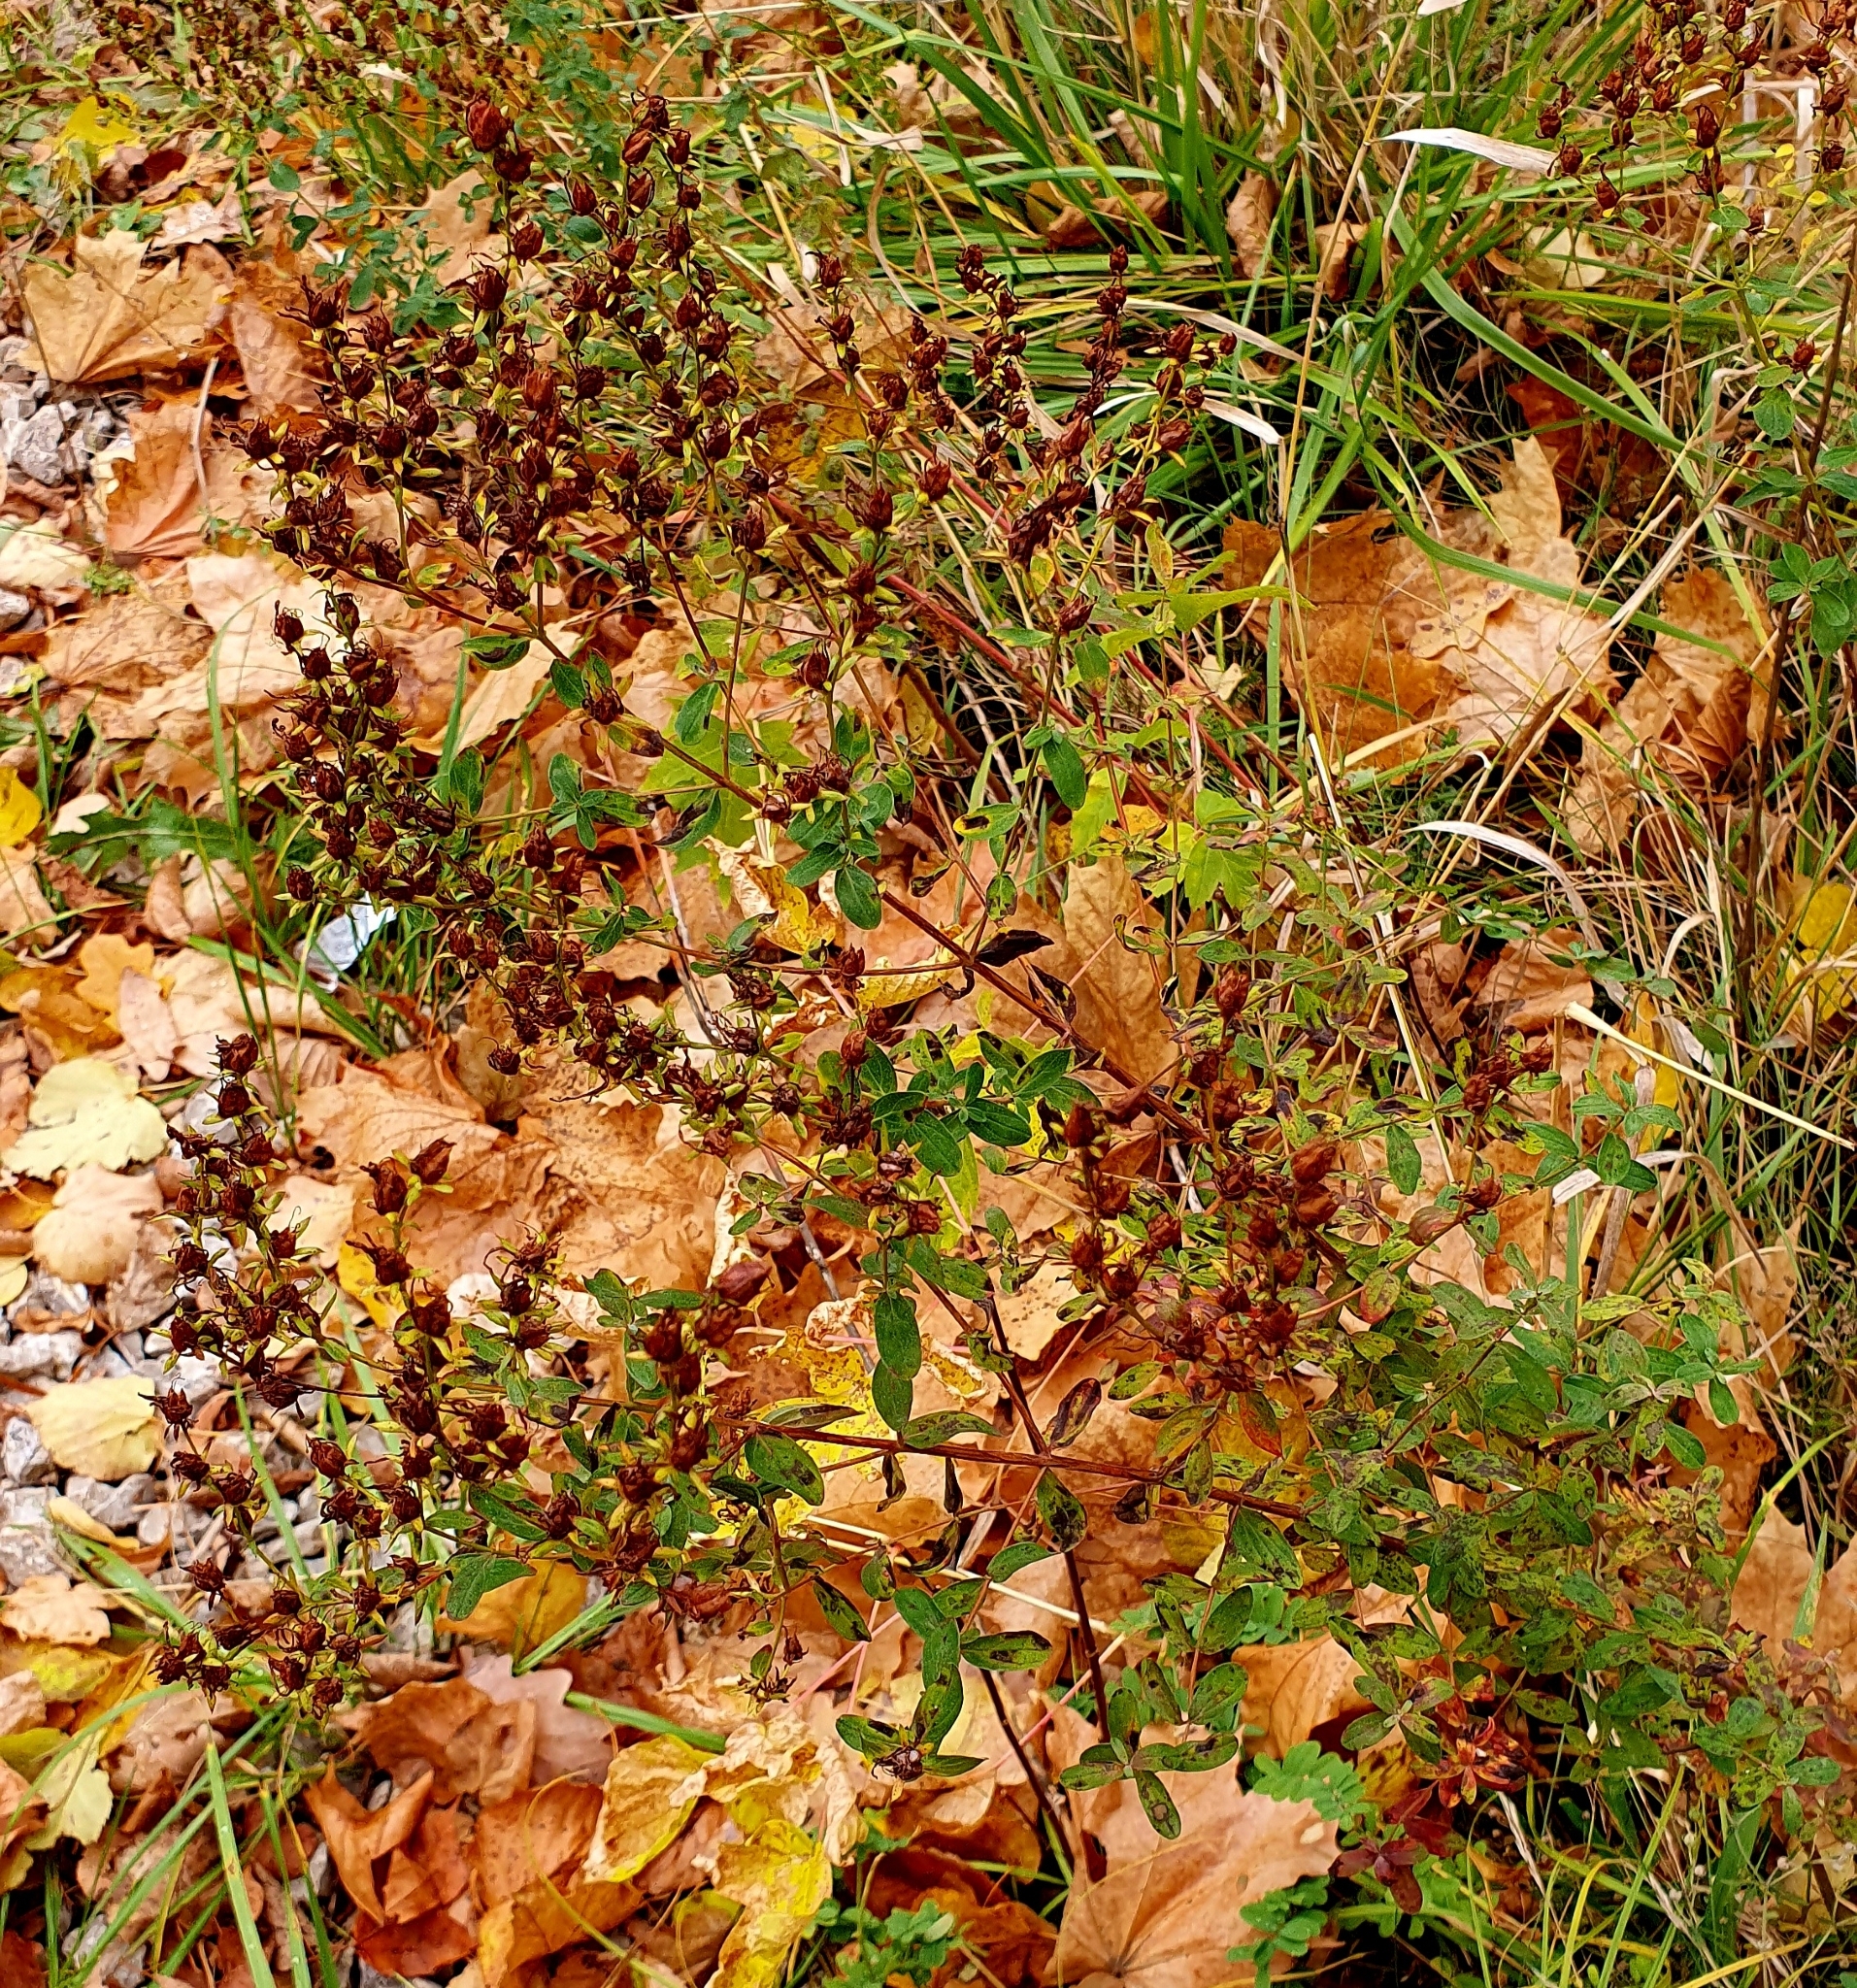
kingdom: Plantae
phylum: Tracheophyta
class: Magnoliopsida
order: Malpighiales
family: Hypericaceae
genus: Hypericum
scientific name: Hypericum perforatum
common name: Common st. johnswort
